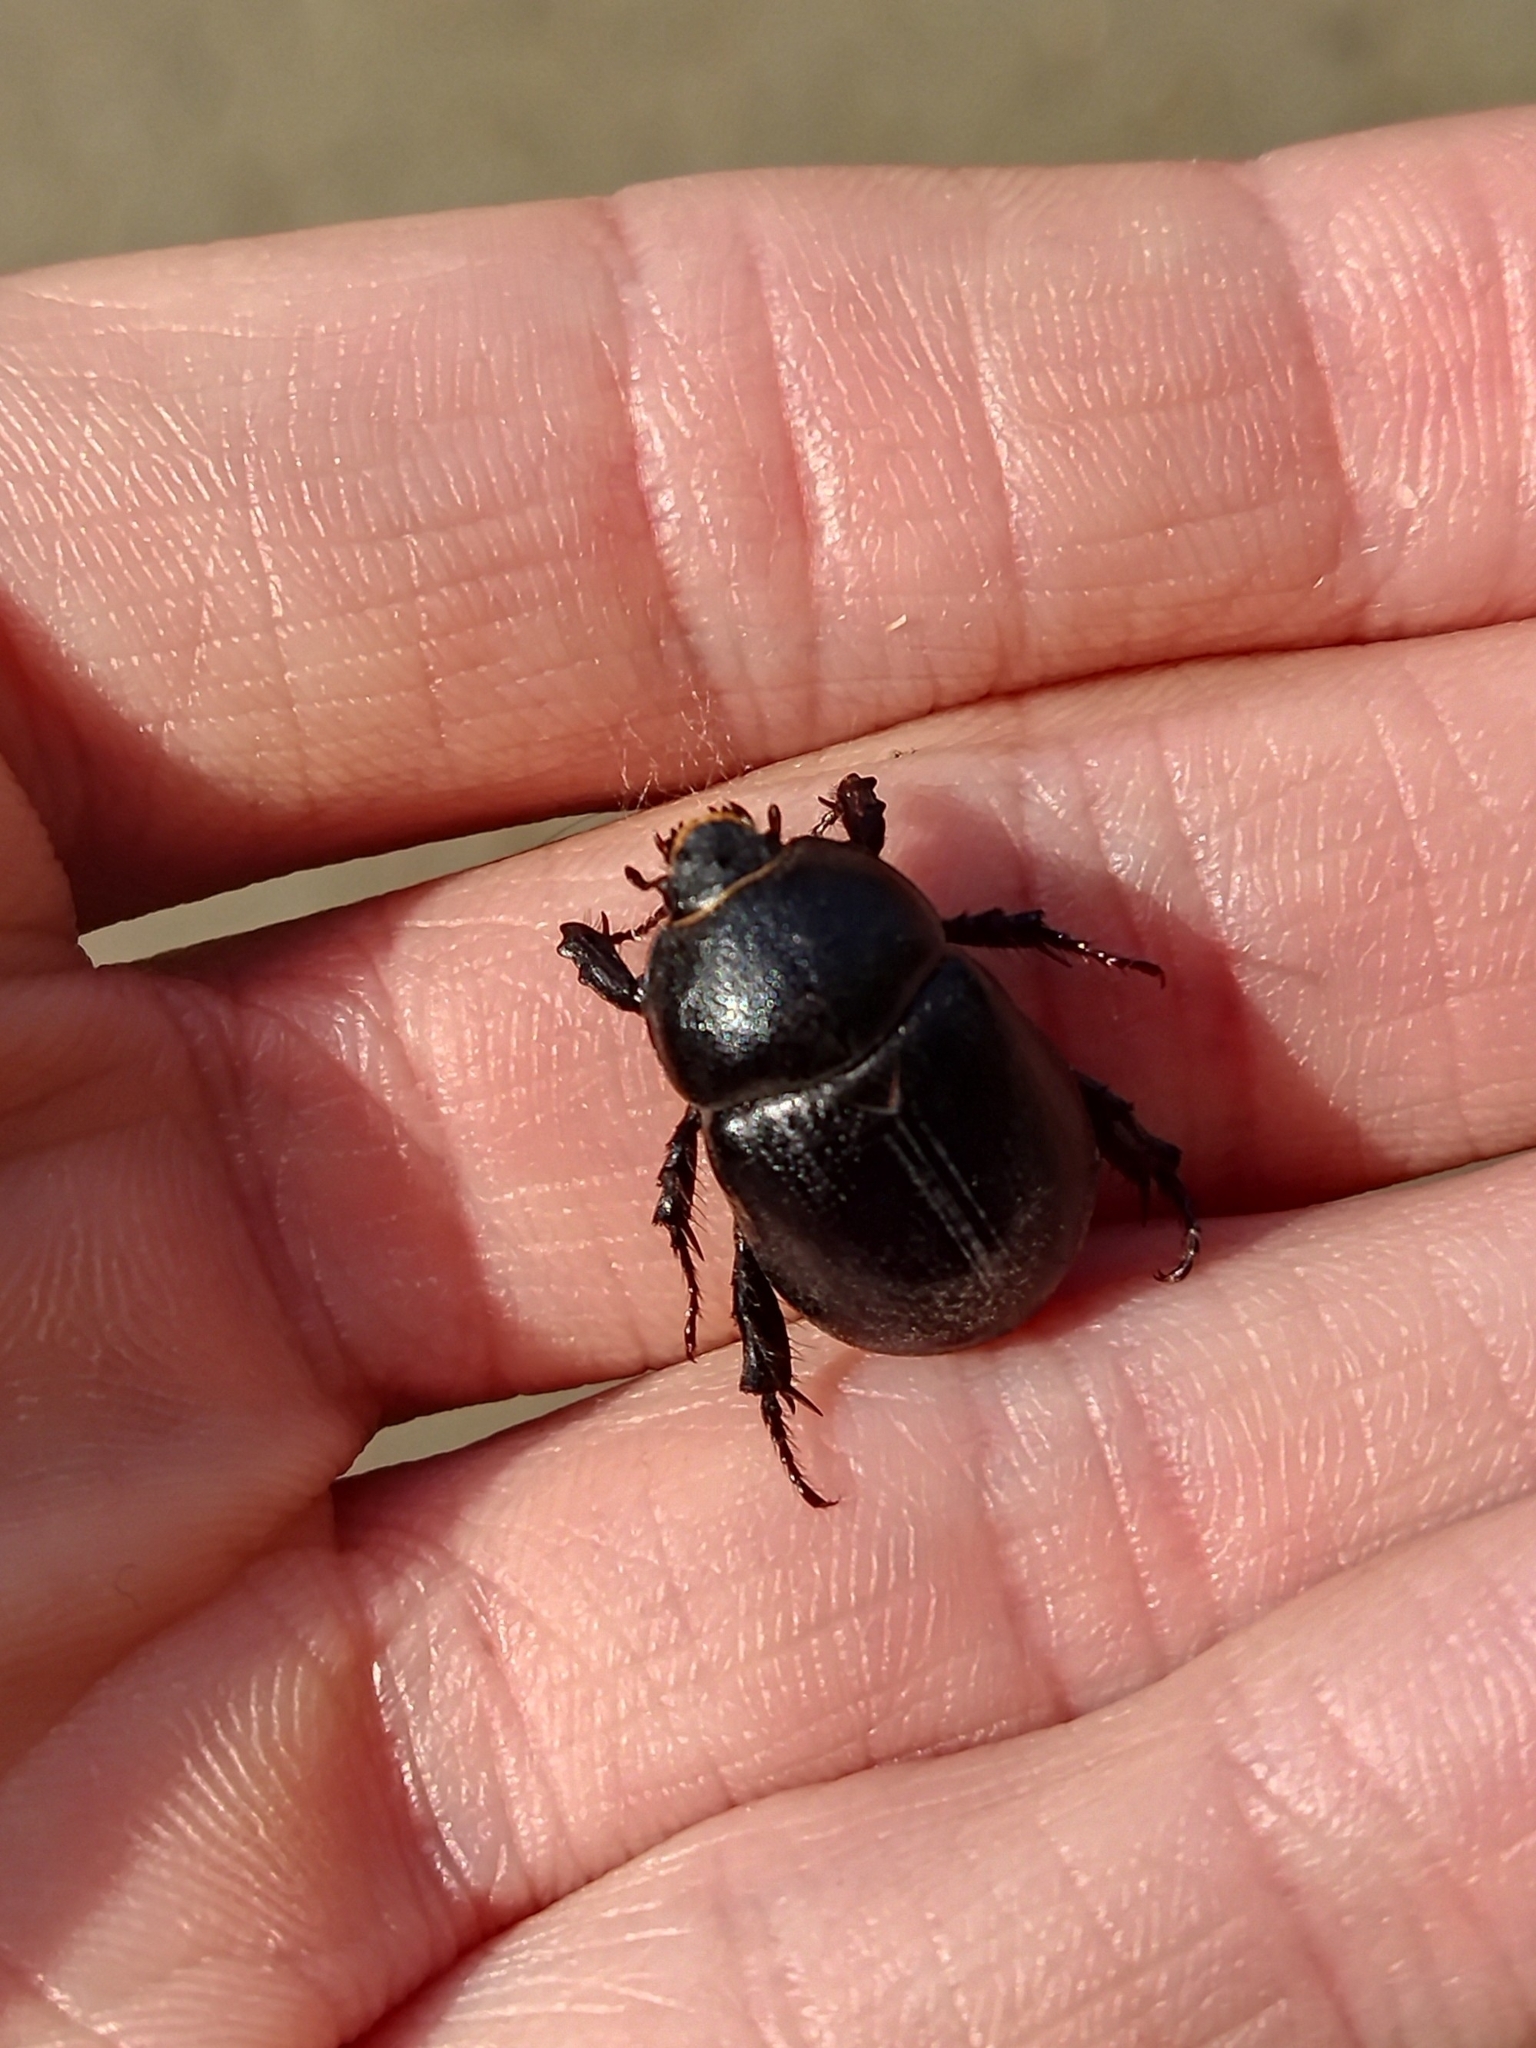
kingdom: Animalia
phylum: Arthropoda
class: Insecta
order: Coleoptera
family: Scarabaeidae
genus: Pentodon
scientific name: Pentodon idiota
